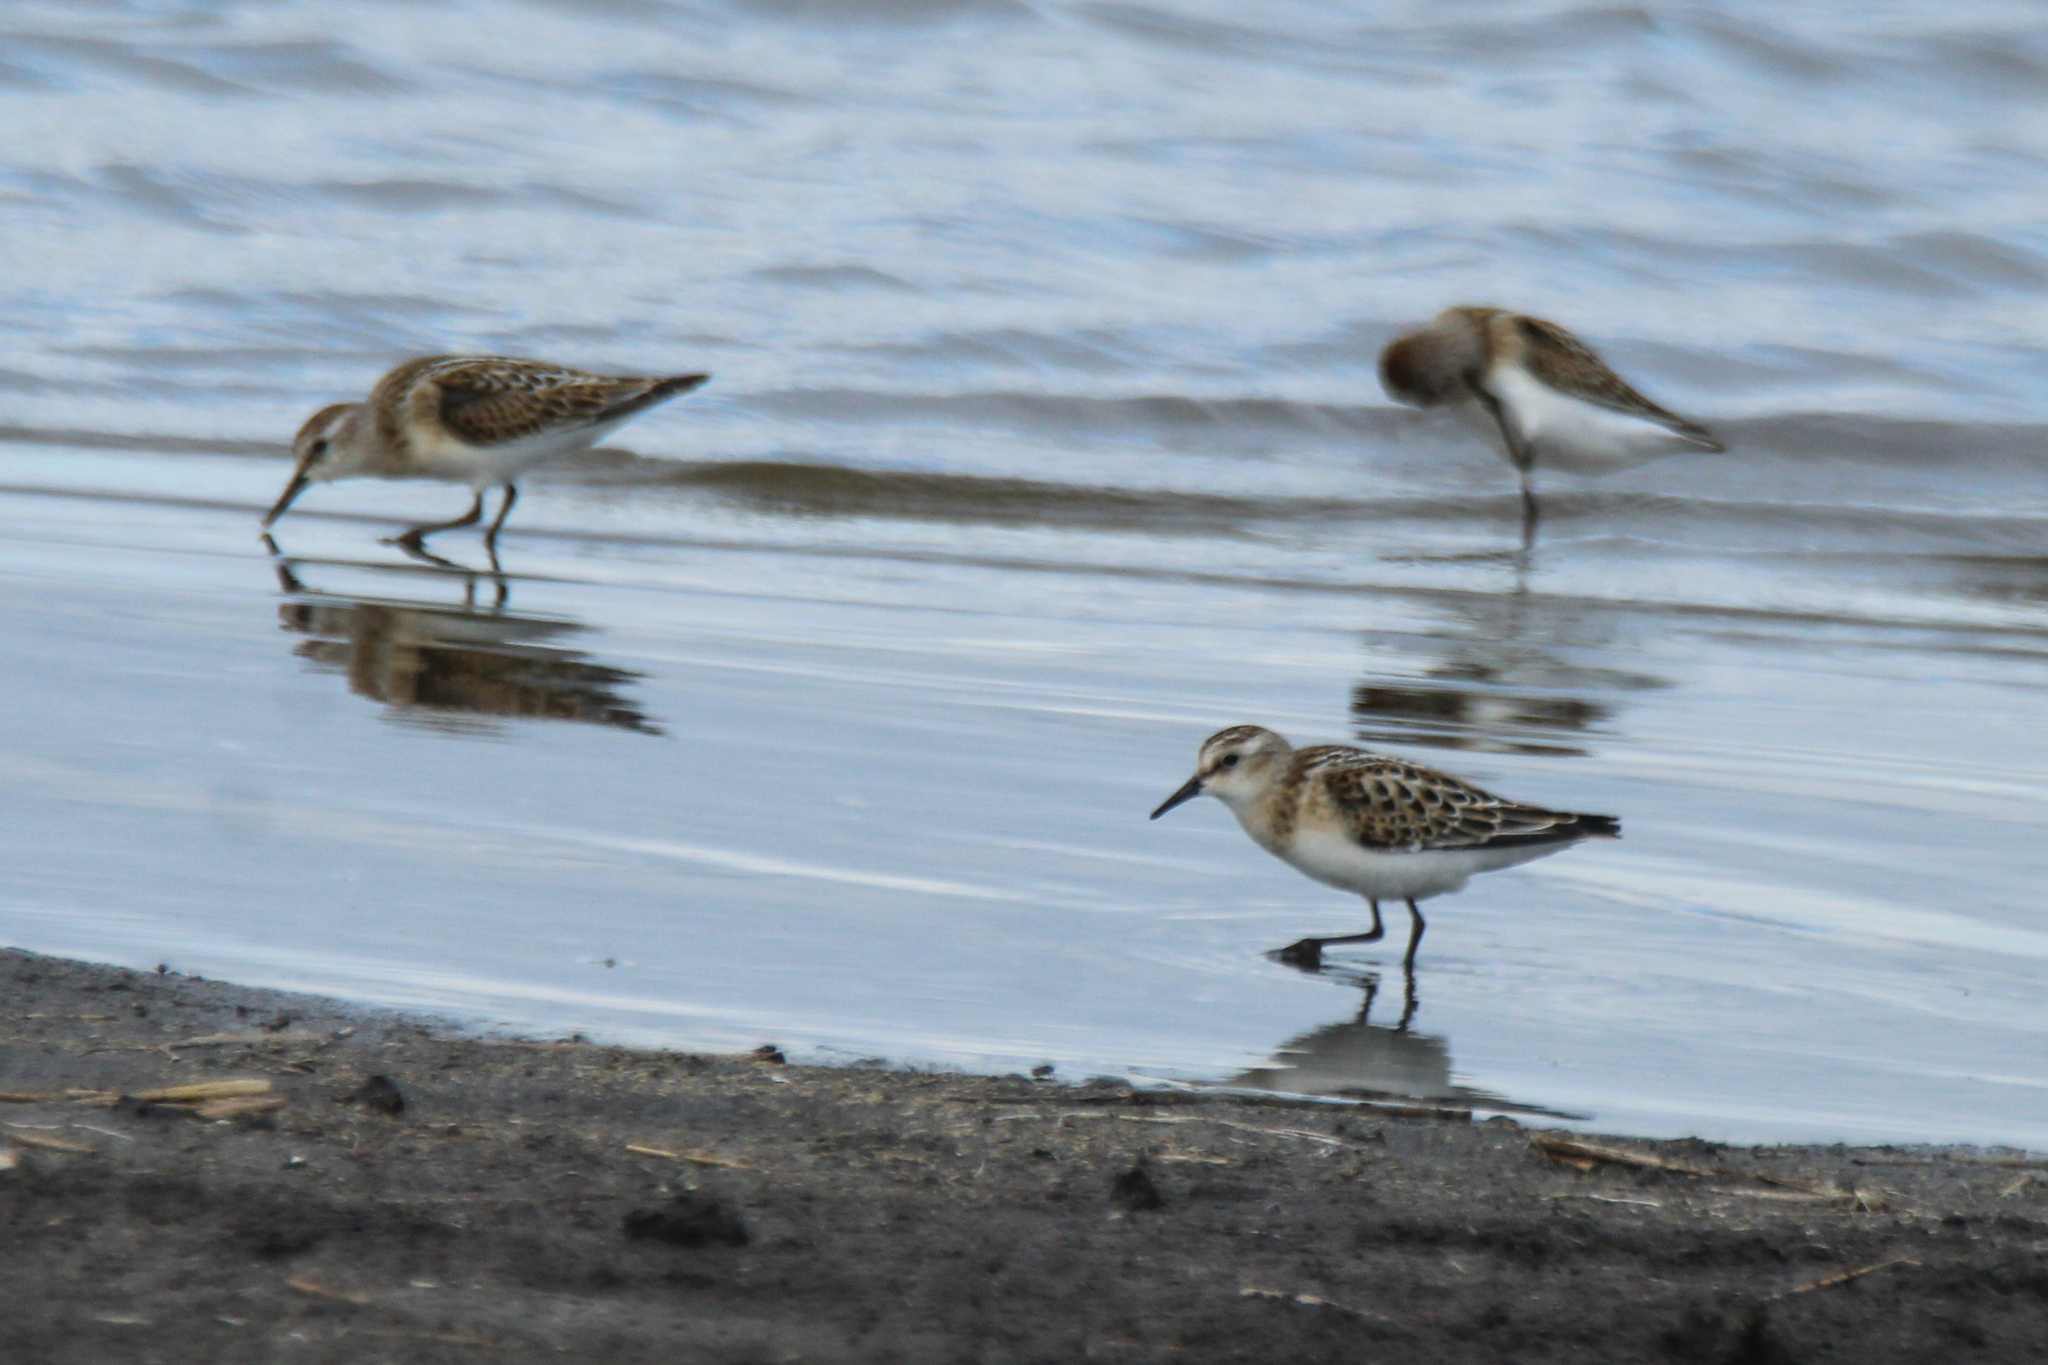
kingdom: Animalia
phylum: Chordata
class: Aves
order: Charadriiformes
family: Scolopacidae
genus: Calidris
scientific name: Calidris minuta
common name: Little stint
